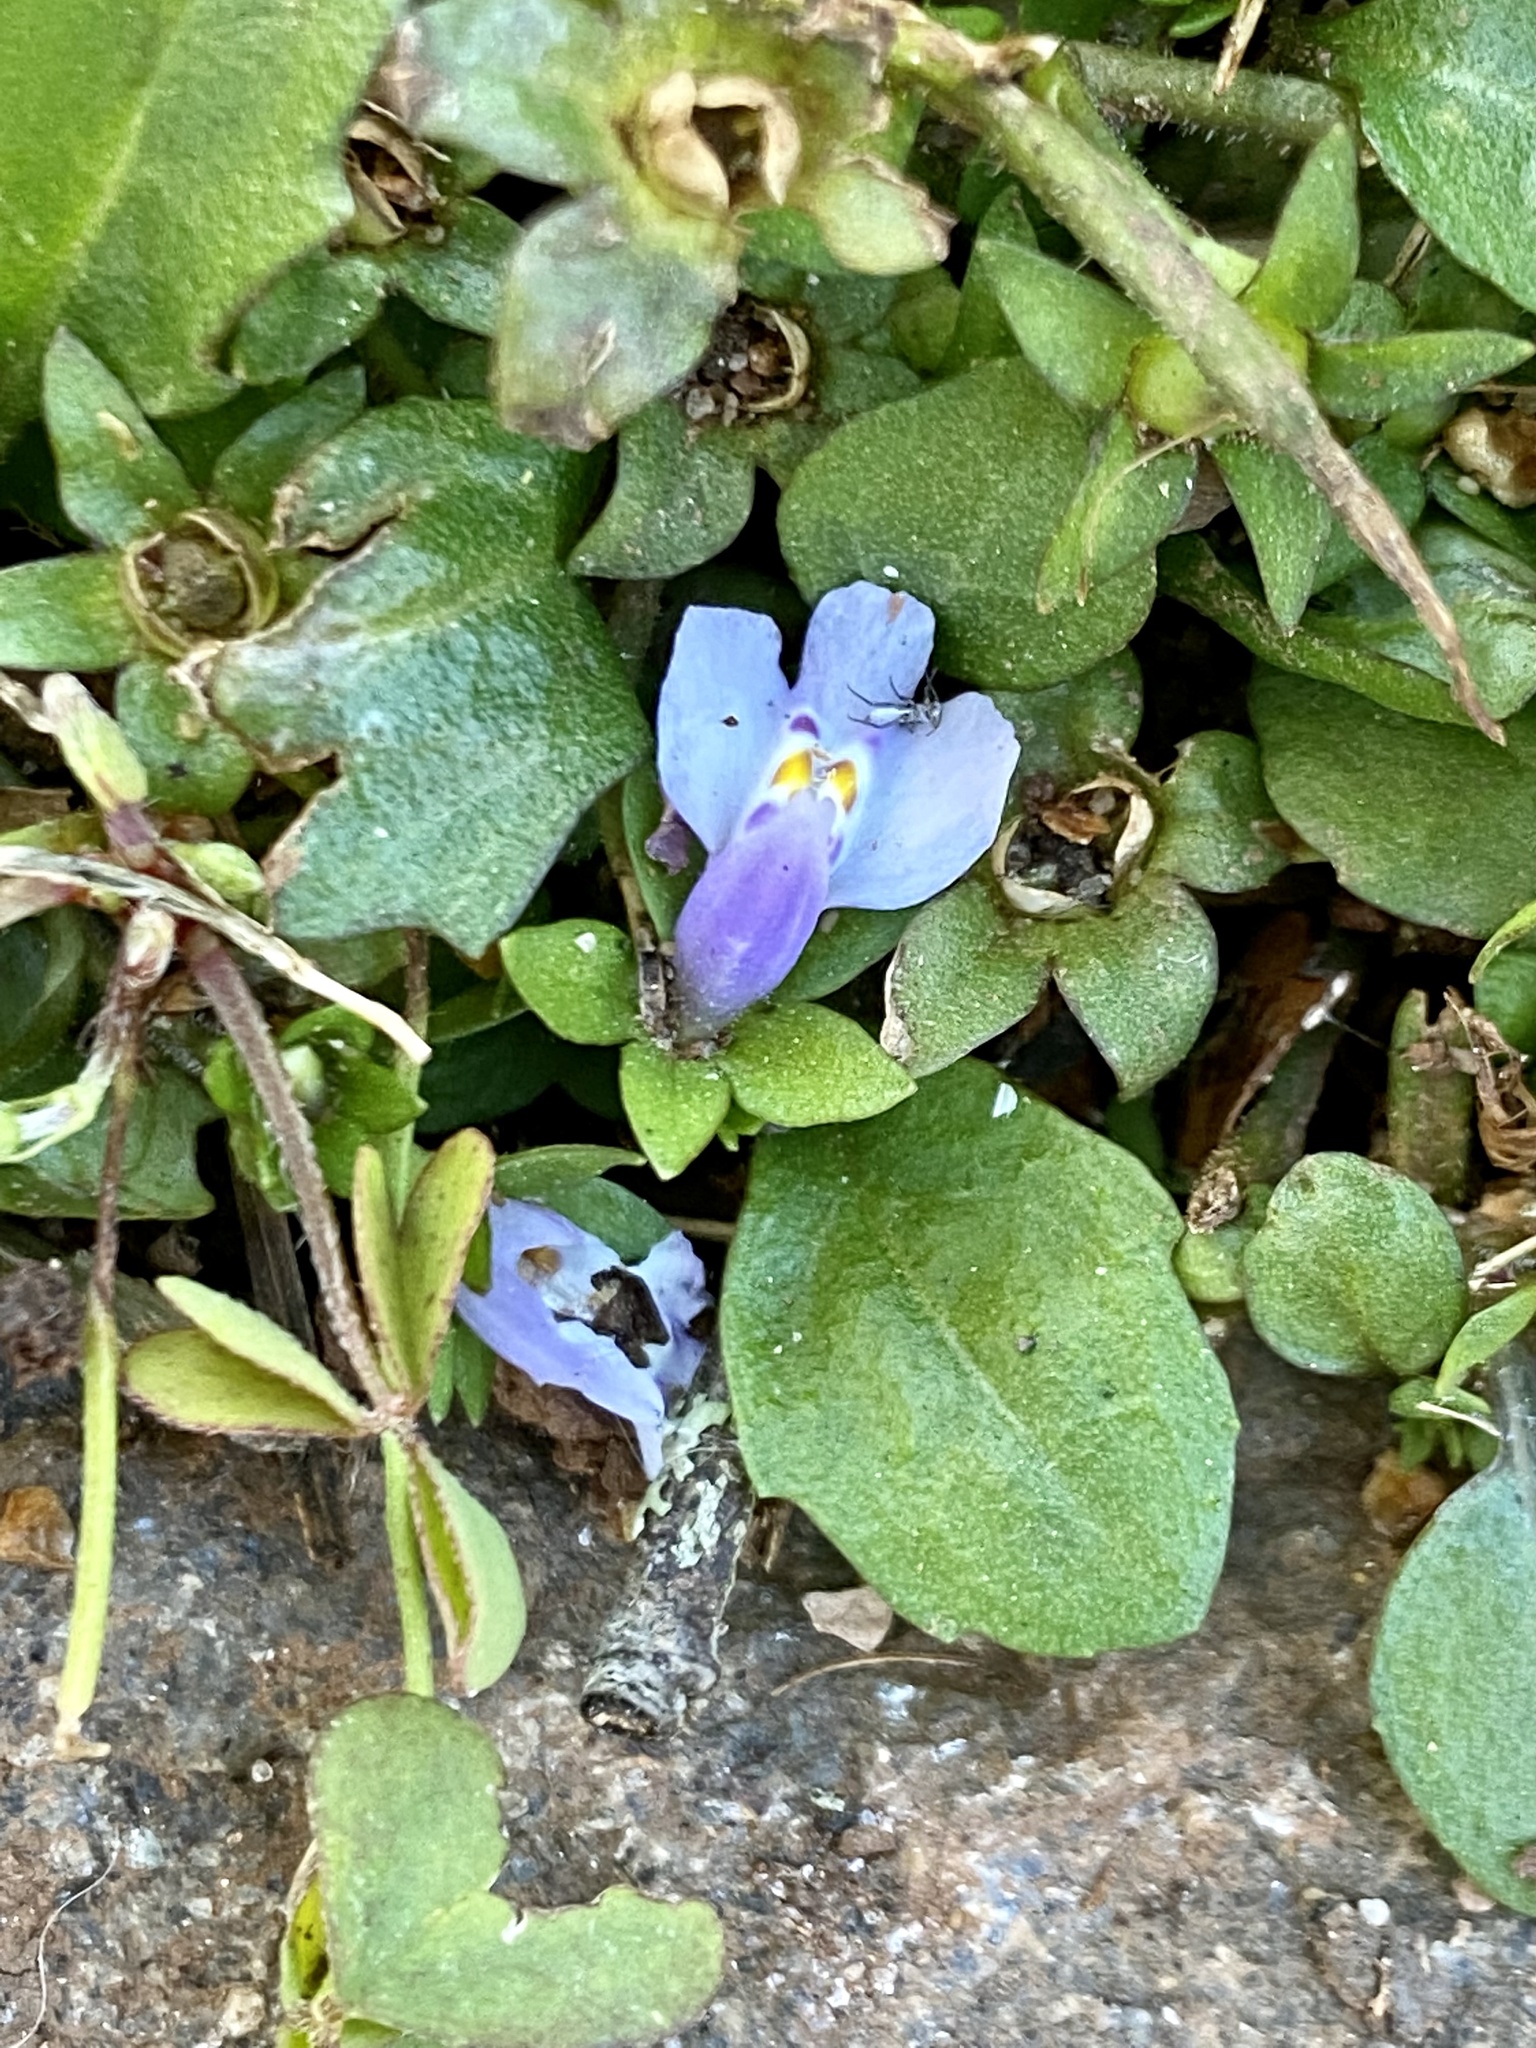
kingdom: Plantae
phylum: Tracheophyta
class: Magnoliopsida
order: Lamiales
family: Mazaceae
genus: Mazus
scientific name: Mazus pumilus
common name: Japanese mazus
